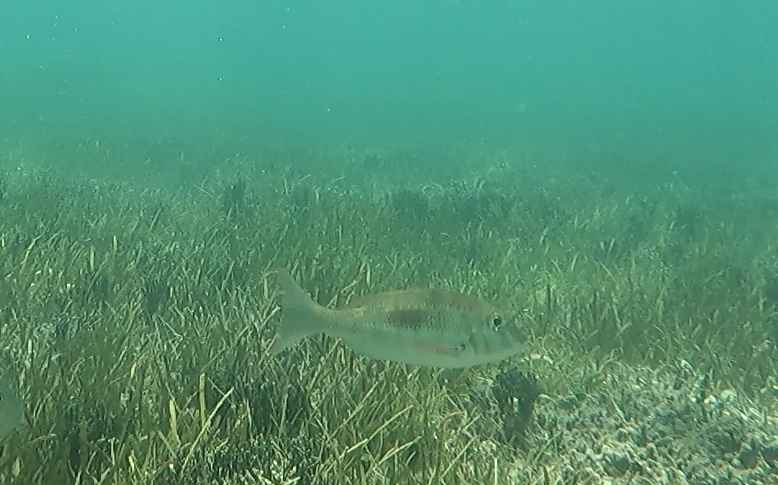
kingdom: Animalia
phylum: Chordata
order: Perciformes
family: Lethrinidae
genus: Lethrinus
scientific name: Lethrinus harak
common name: Blackspot emperor
